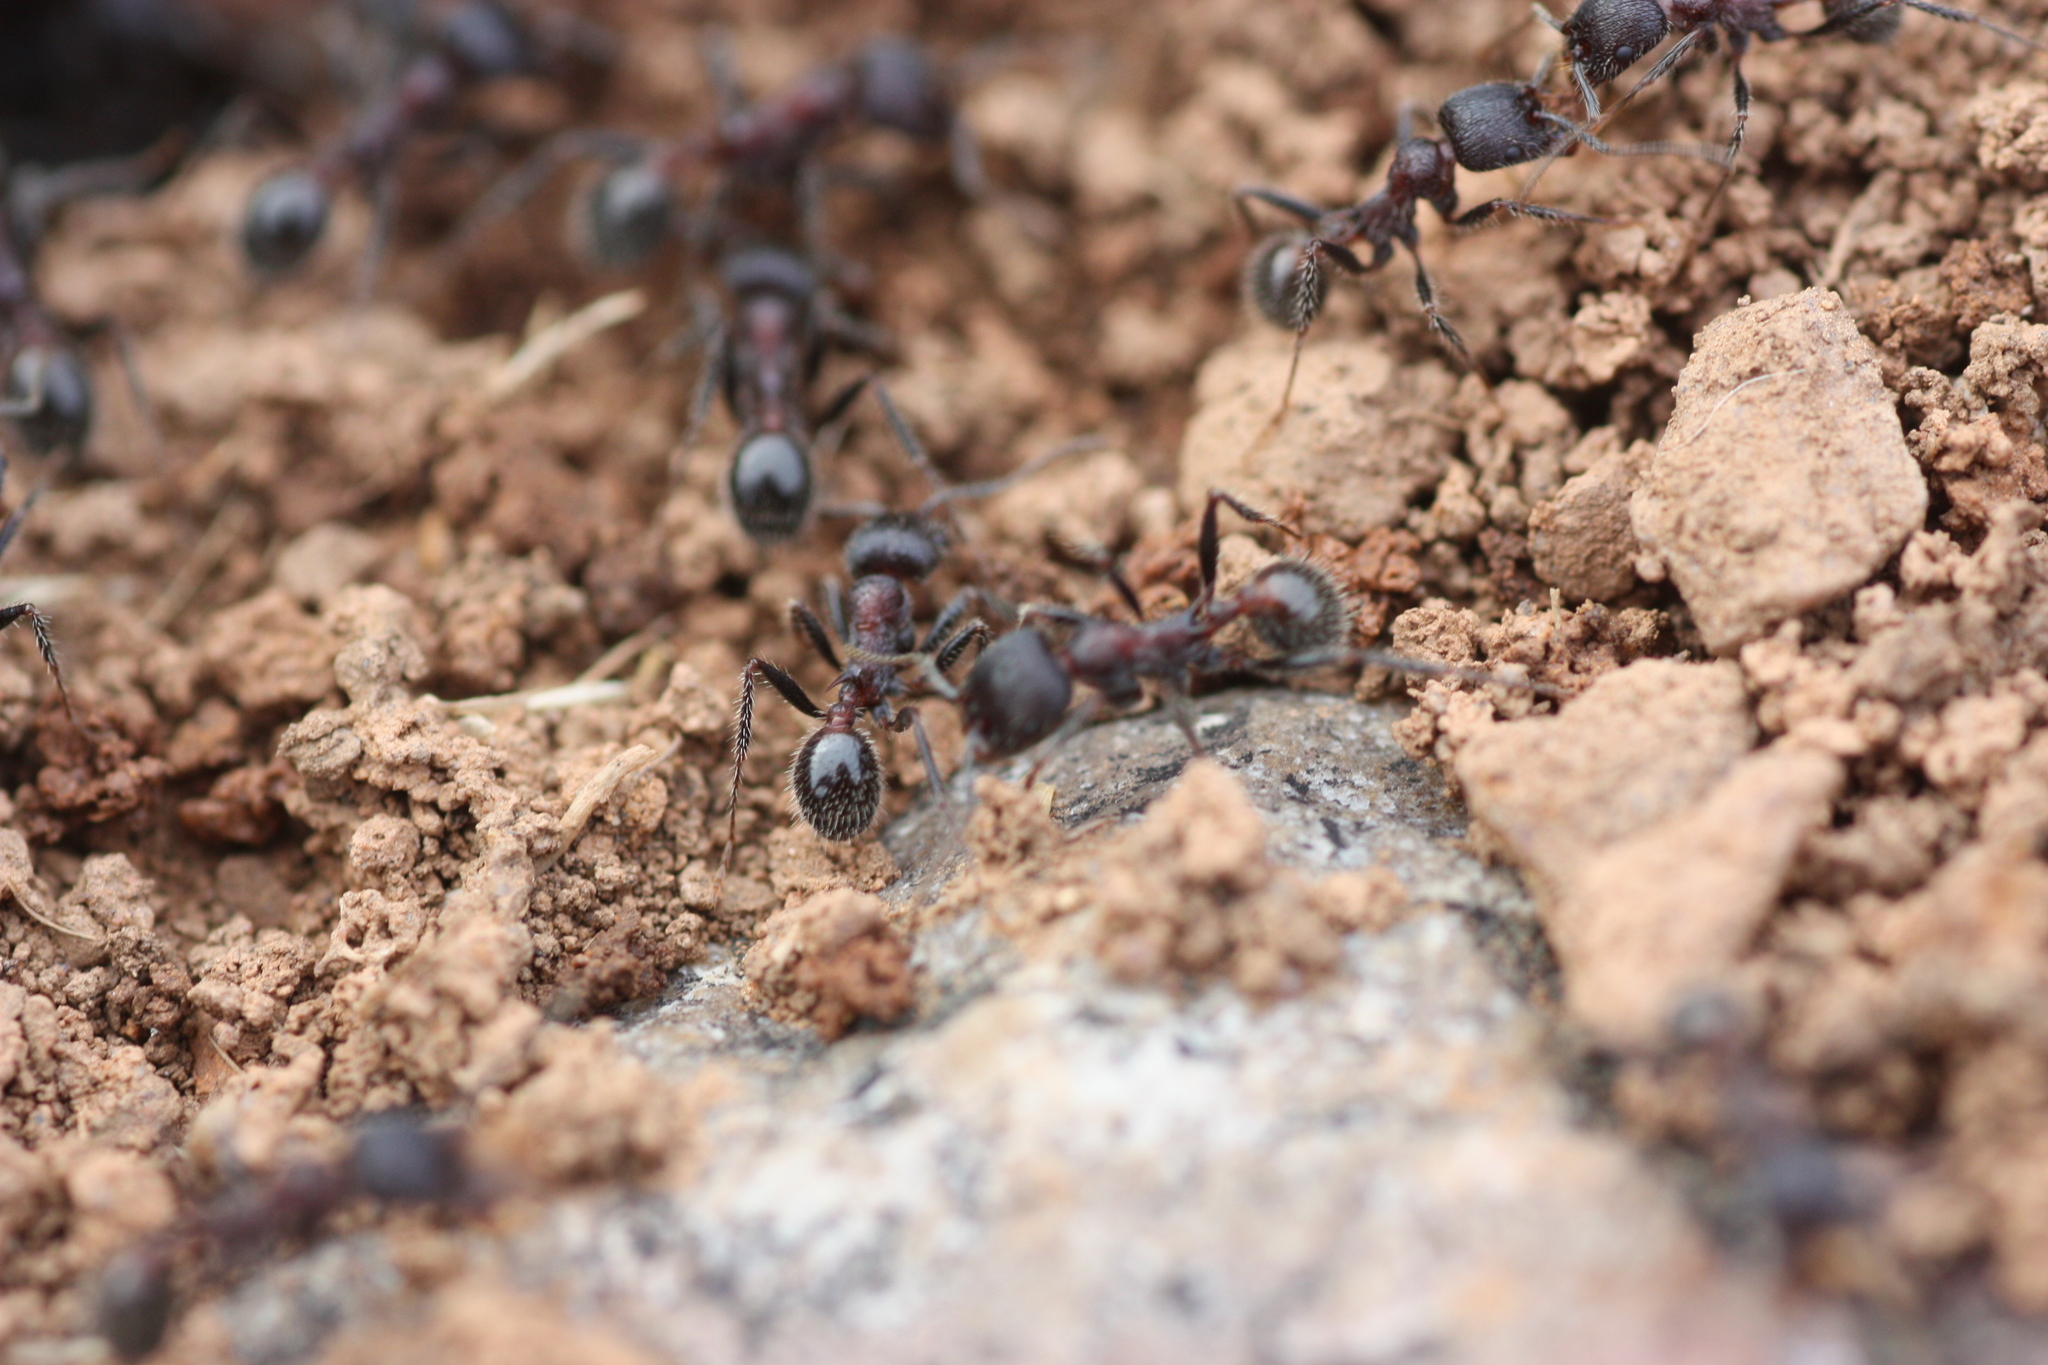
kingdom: Animalia
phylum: Arthropoda
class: Insecta
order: Hymenoptera
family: Formicidae
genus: Veromessor
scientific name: Veromessor andrei
